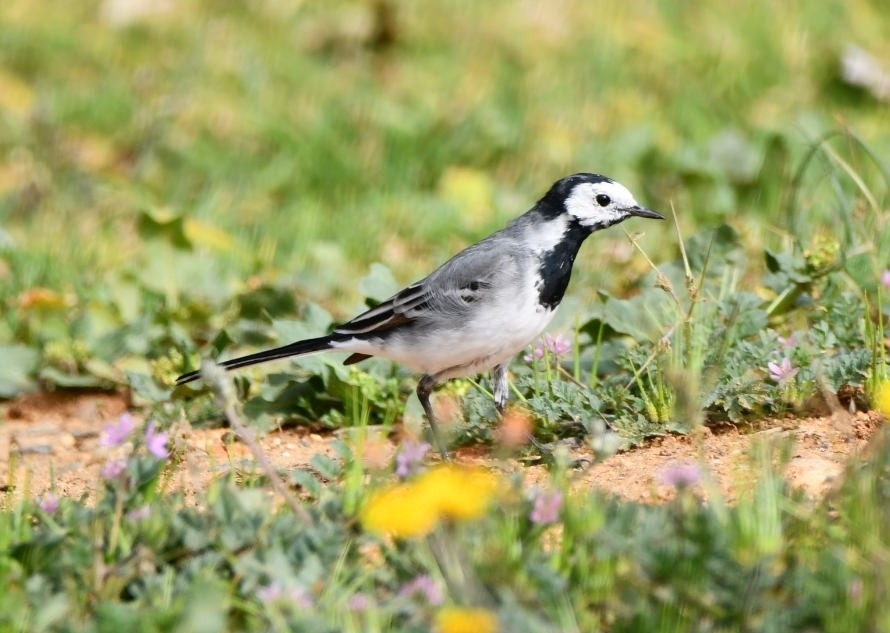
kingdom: Animalia
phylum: Chordata
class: Aves
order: Passeriformes
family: Motacillidae
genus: Motacilla
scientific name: Motacilla alba
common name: White wagtail
